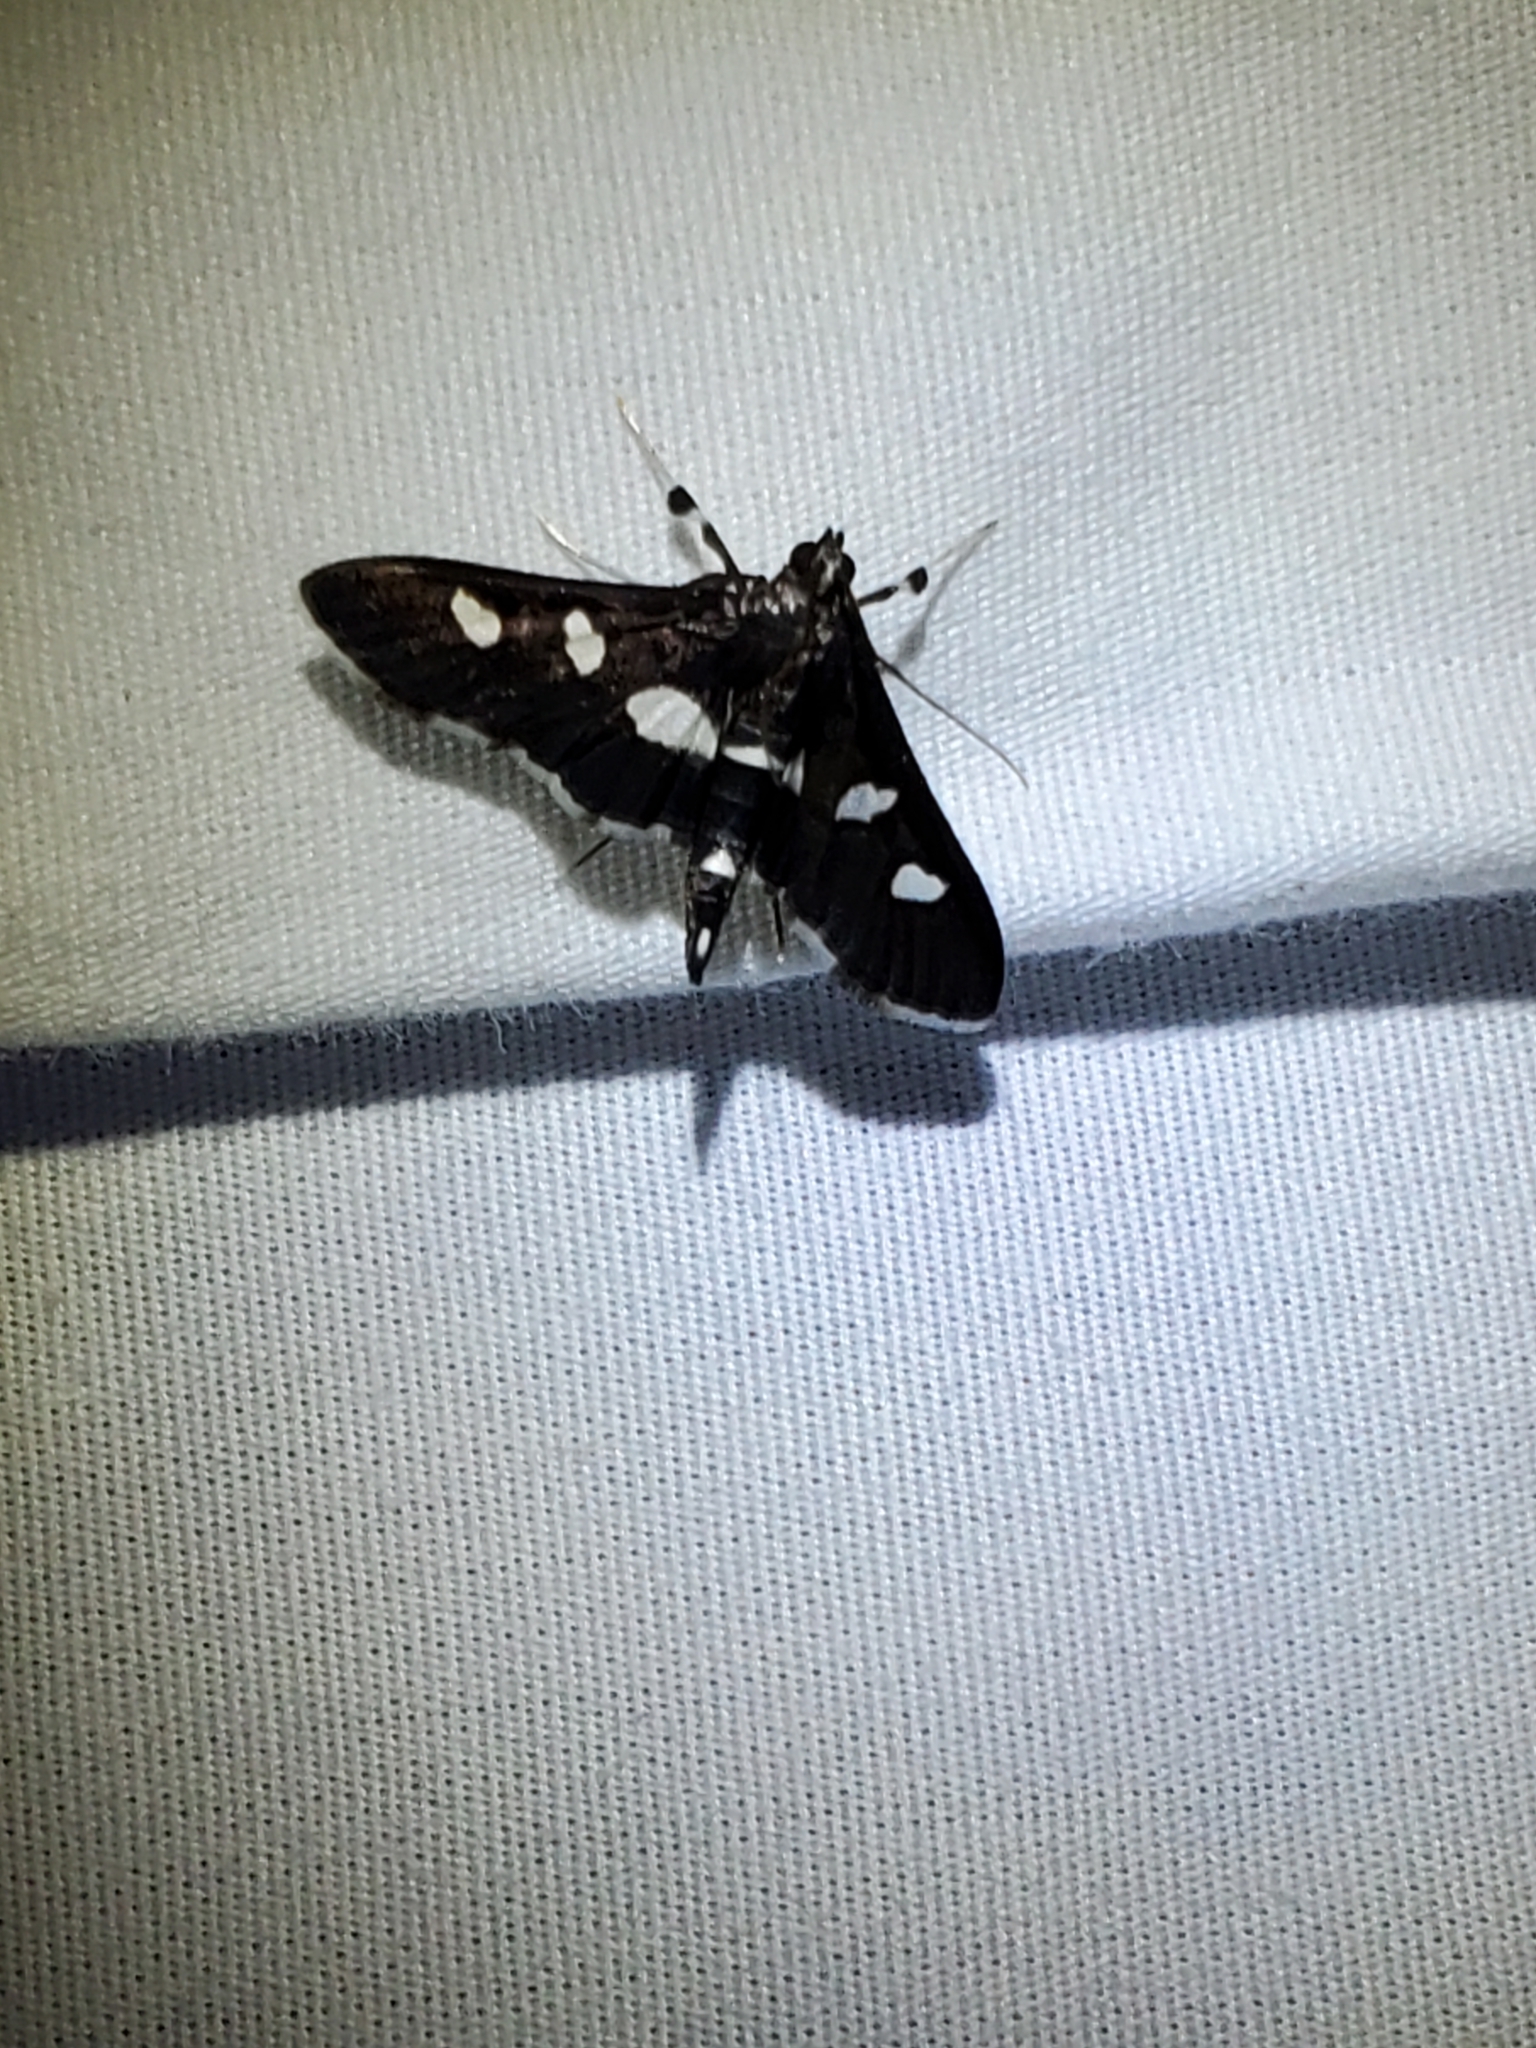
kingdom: Animalia
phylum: Arthropoda
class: Insecta
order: Lepidoptera
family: Crambidae
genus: Desmia
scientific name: Desmia
